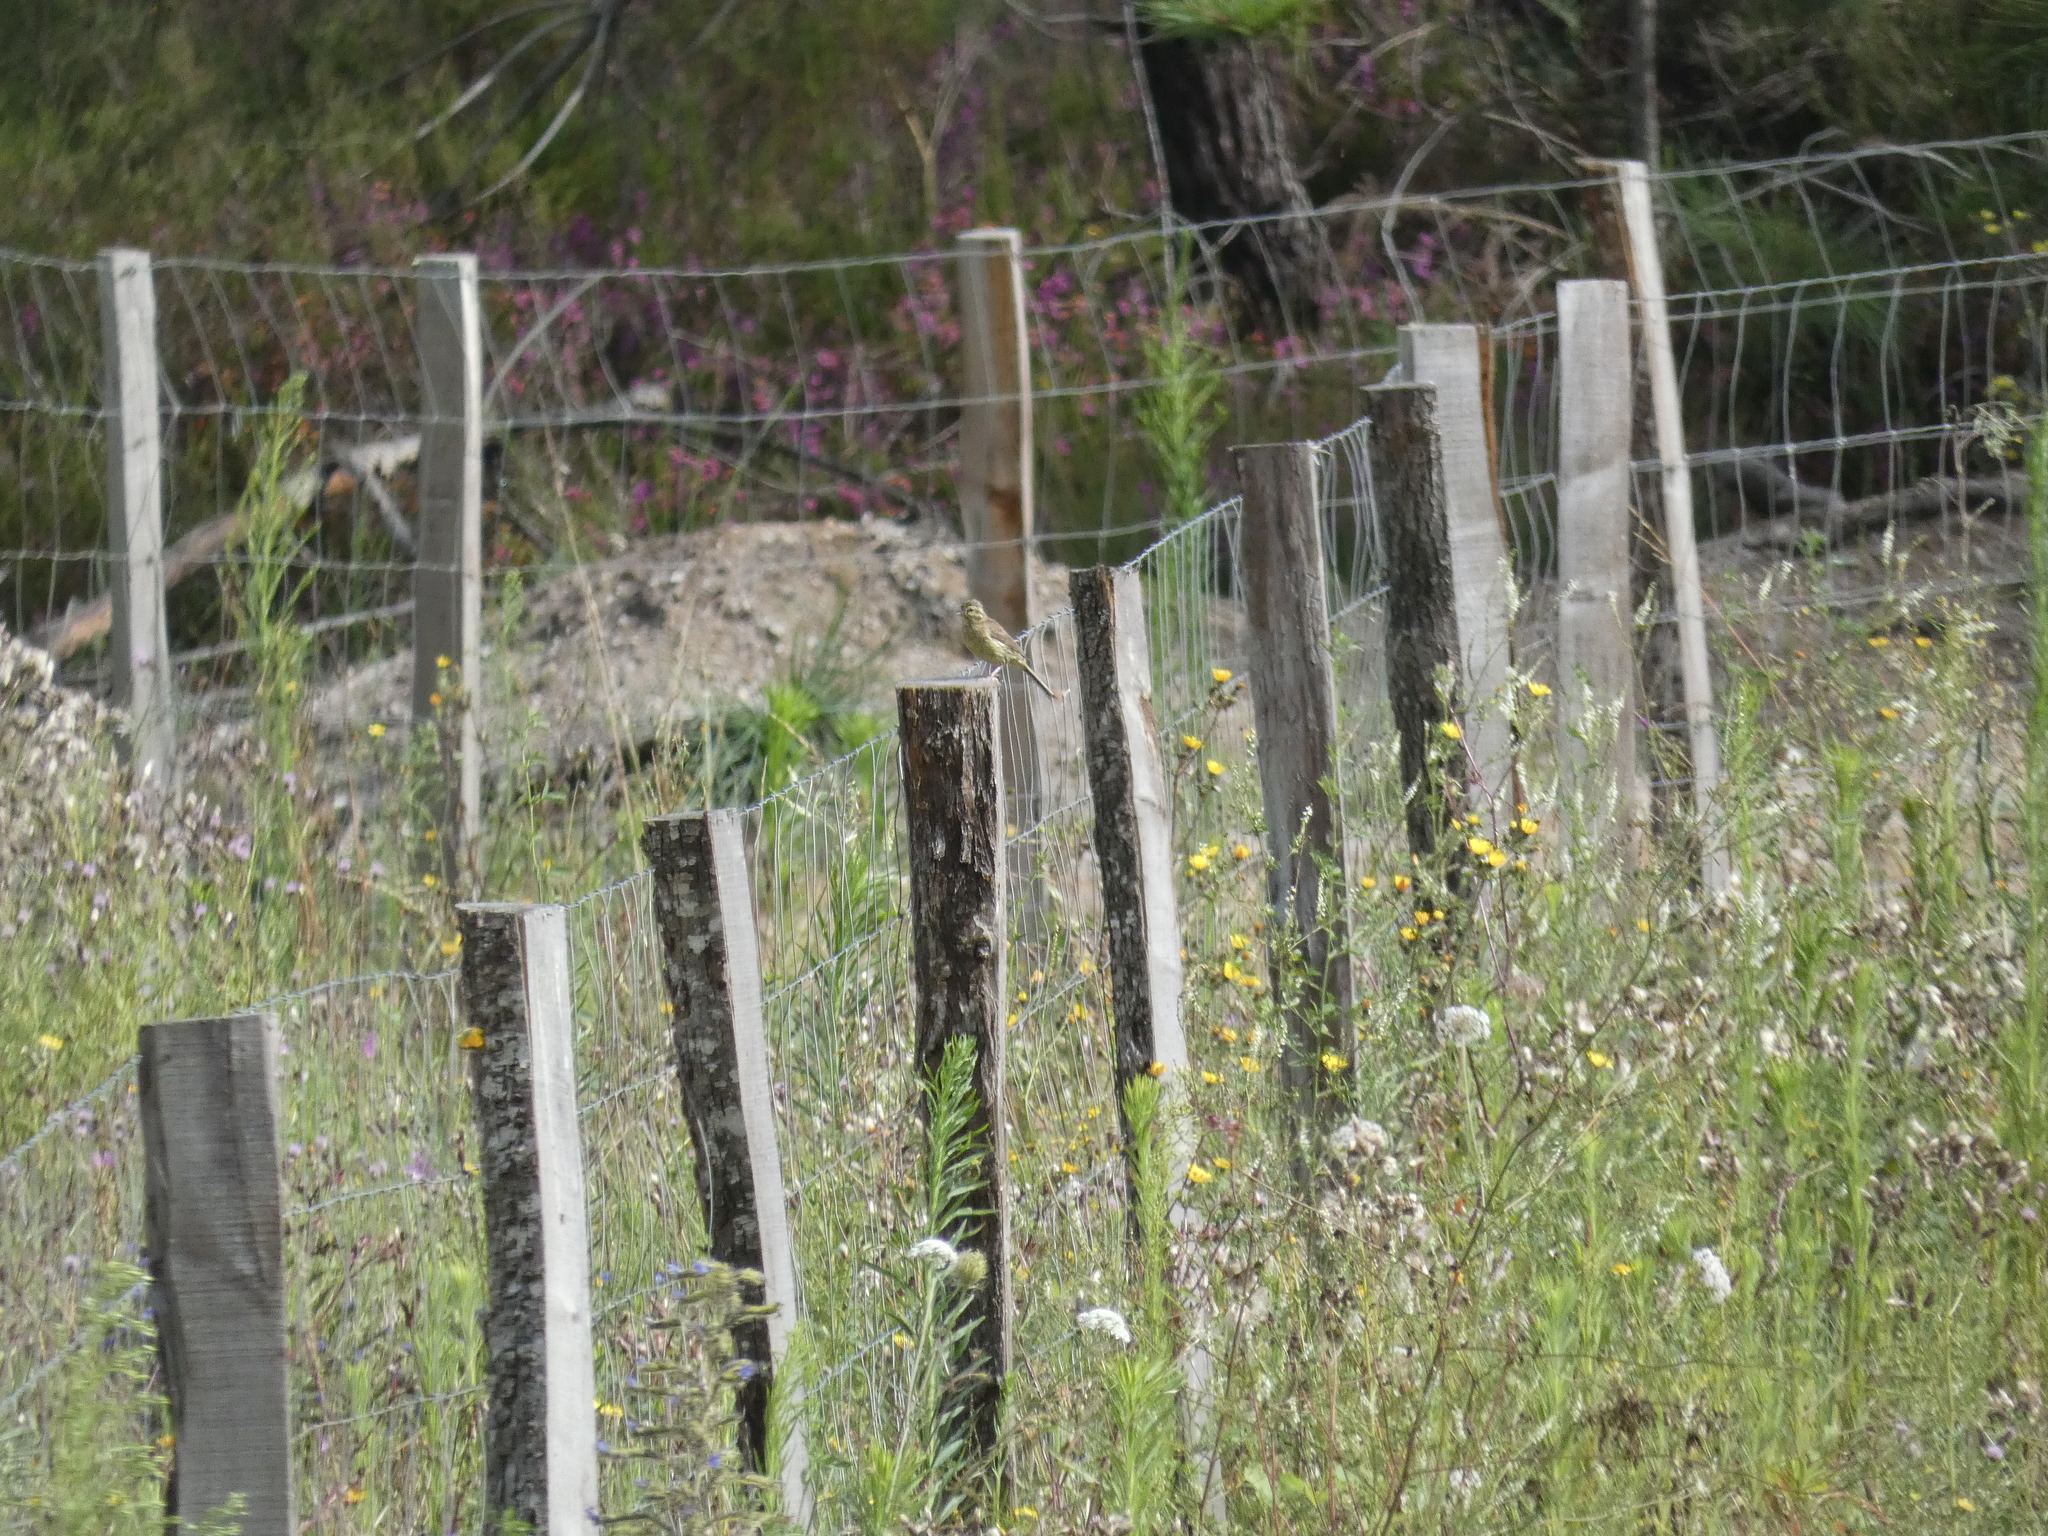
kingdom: Animalia
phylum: Chordata
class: Aves
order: Passeriformes
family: Emberizidae
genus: Emberiza
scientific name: Emberiza cirlus
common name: Cirl bunting
